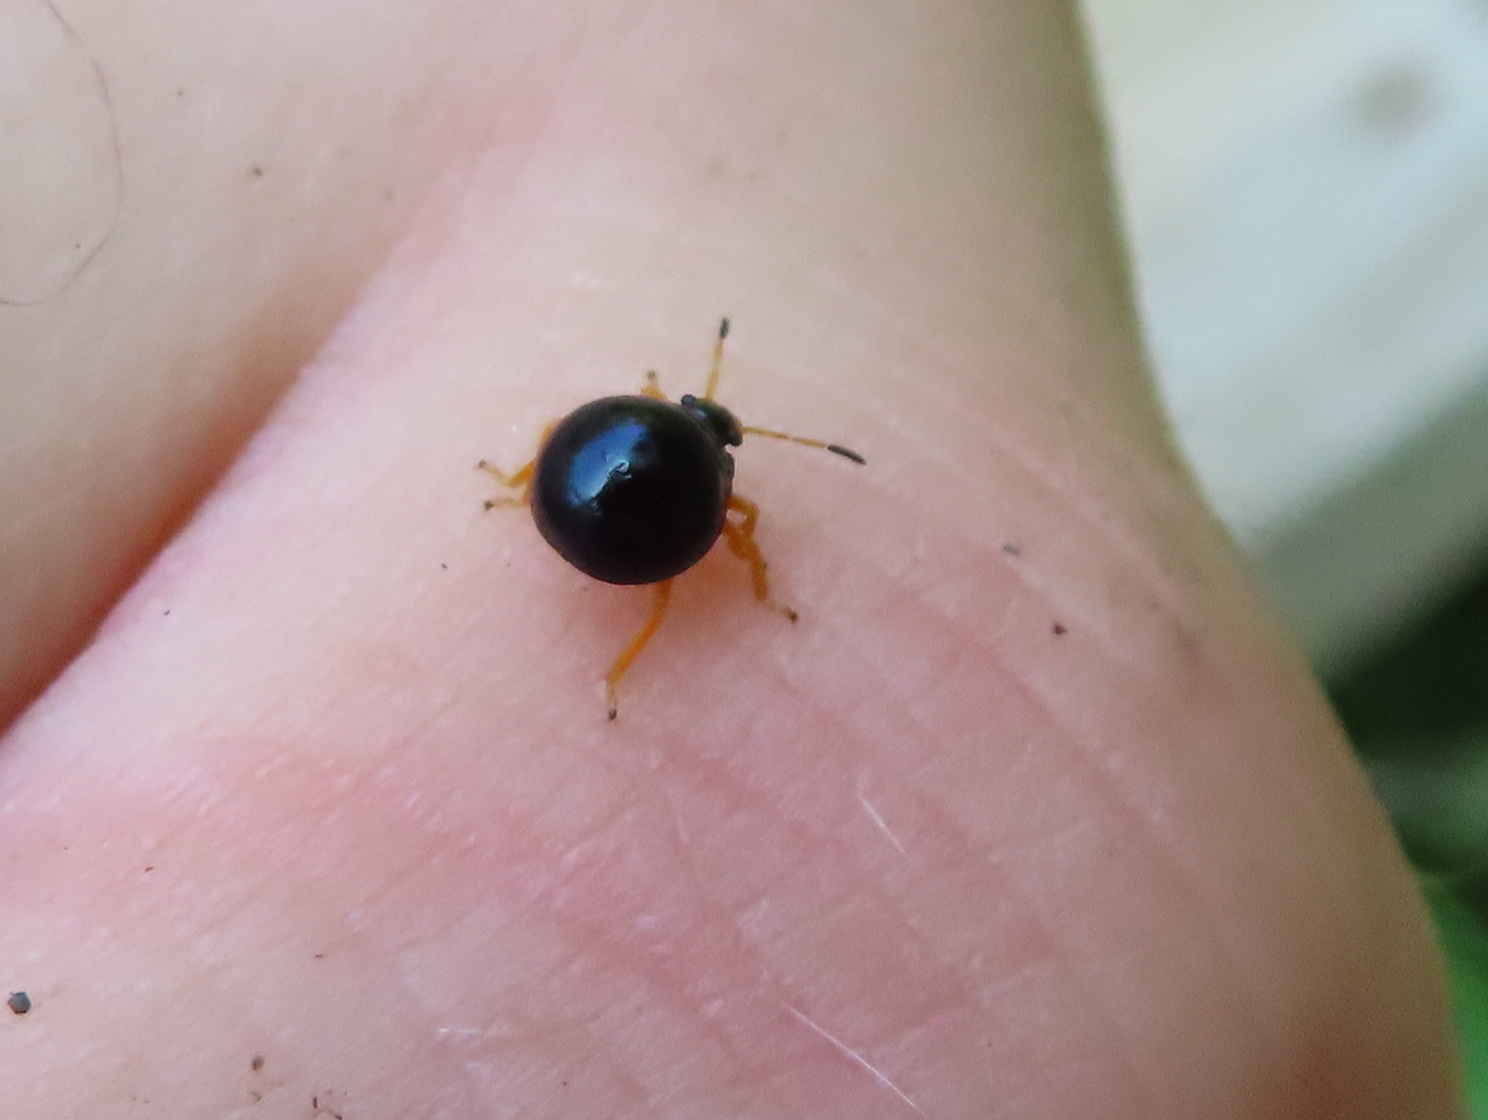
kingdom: Animalia
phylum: Arthropoda
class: Insecta
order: Hemiptera
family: Pentatomidae
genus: Stiretrus
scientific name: Stiretrus anchorago
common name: Anchor stink bug
